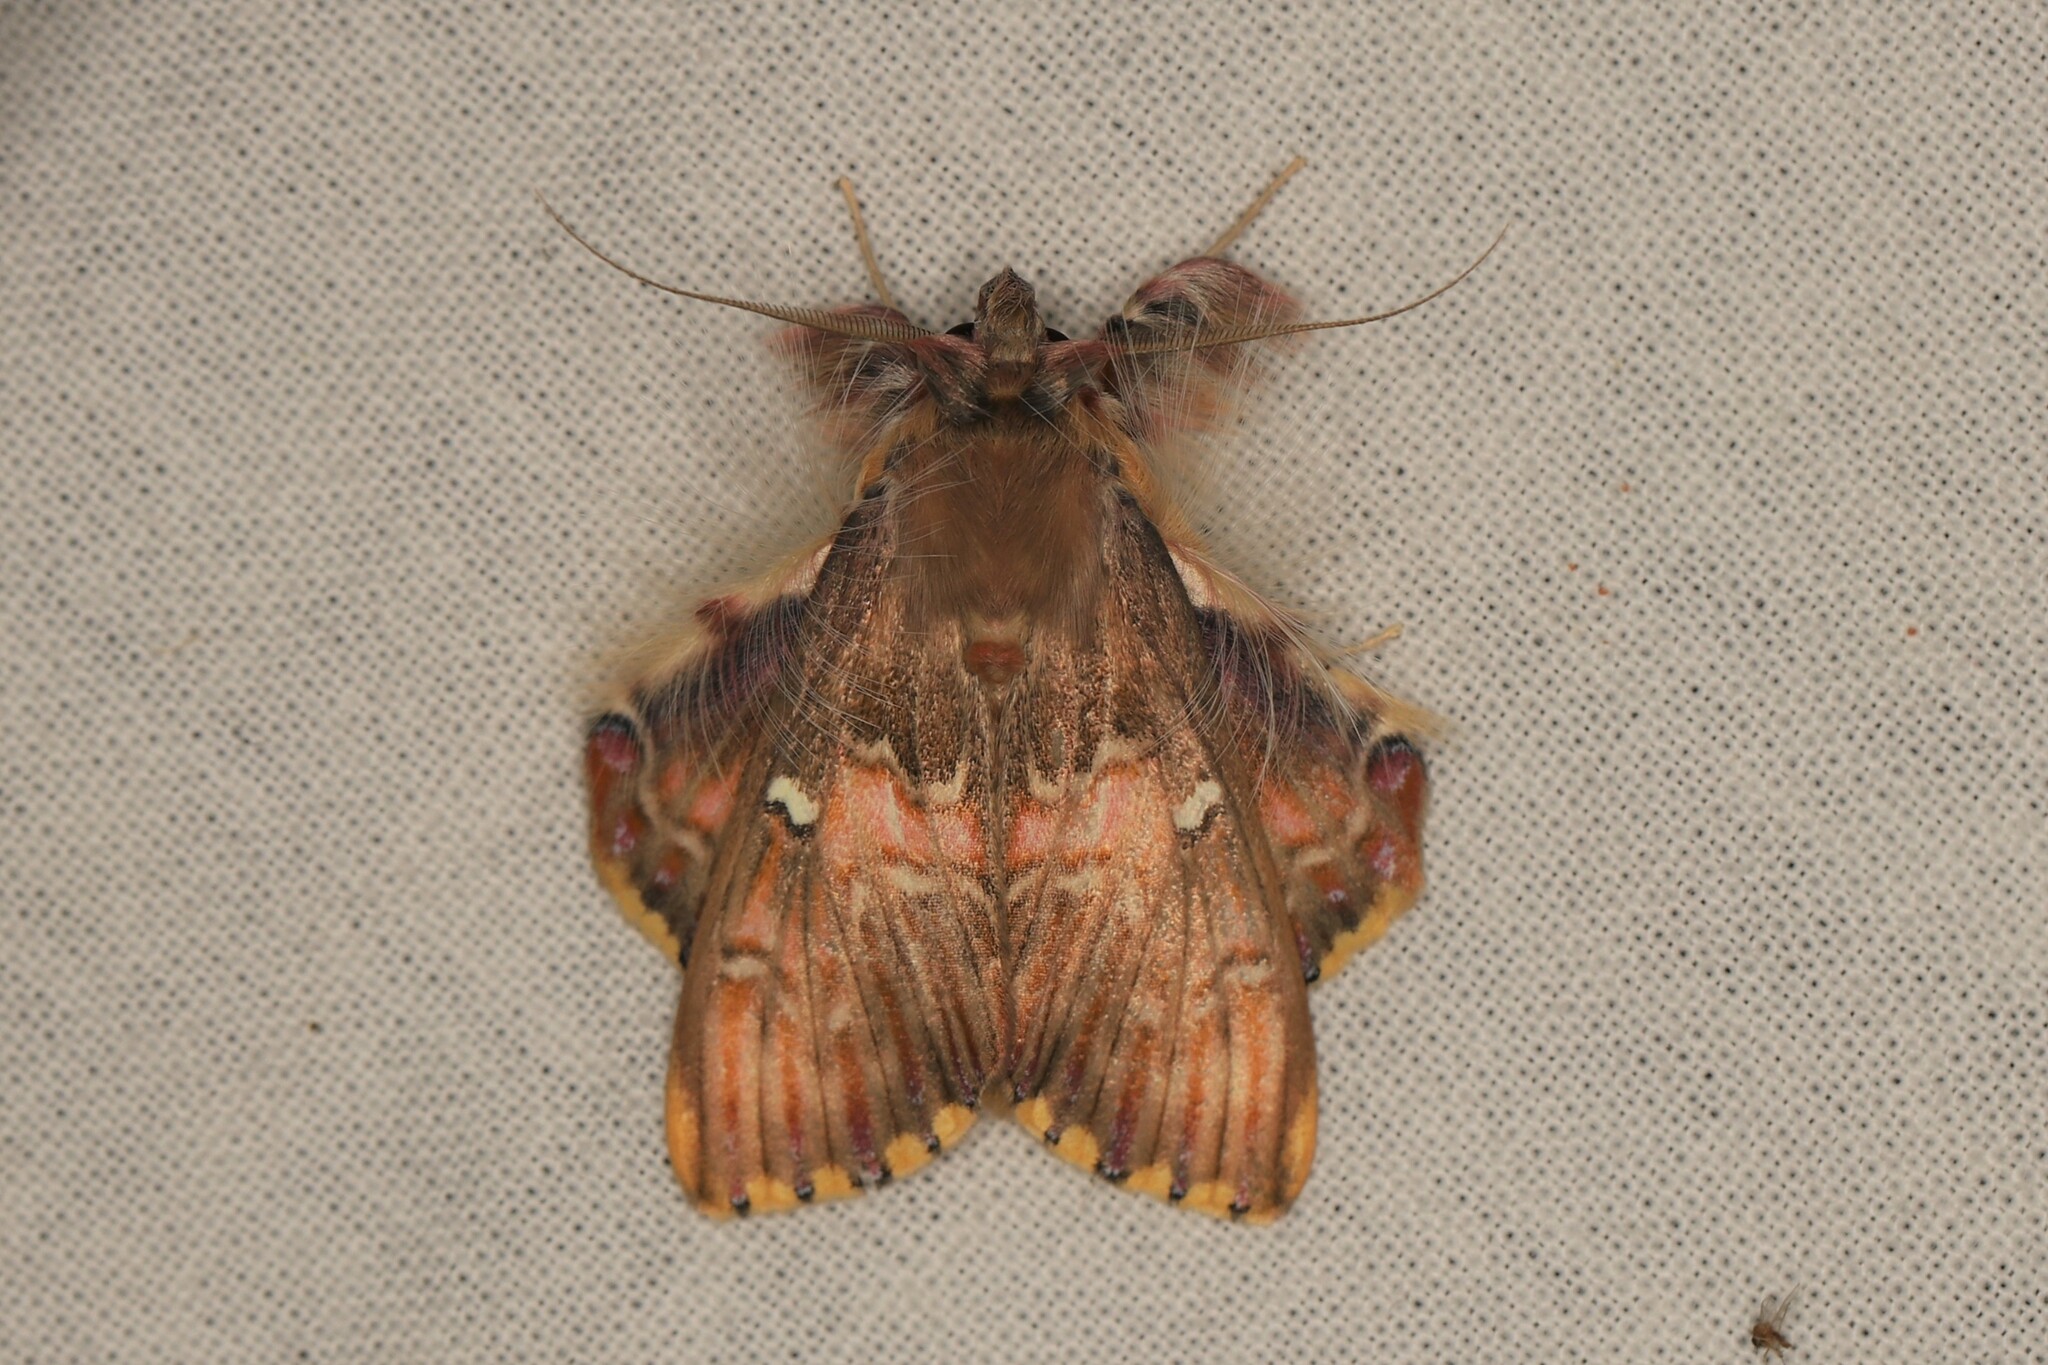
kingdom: Animalia
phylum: Arthropoda
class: Insecta
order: Lepidoptera
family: Erebidae
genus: Sosxetra
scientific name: Sosxetra grata
